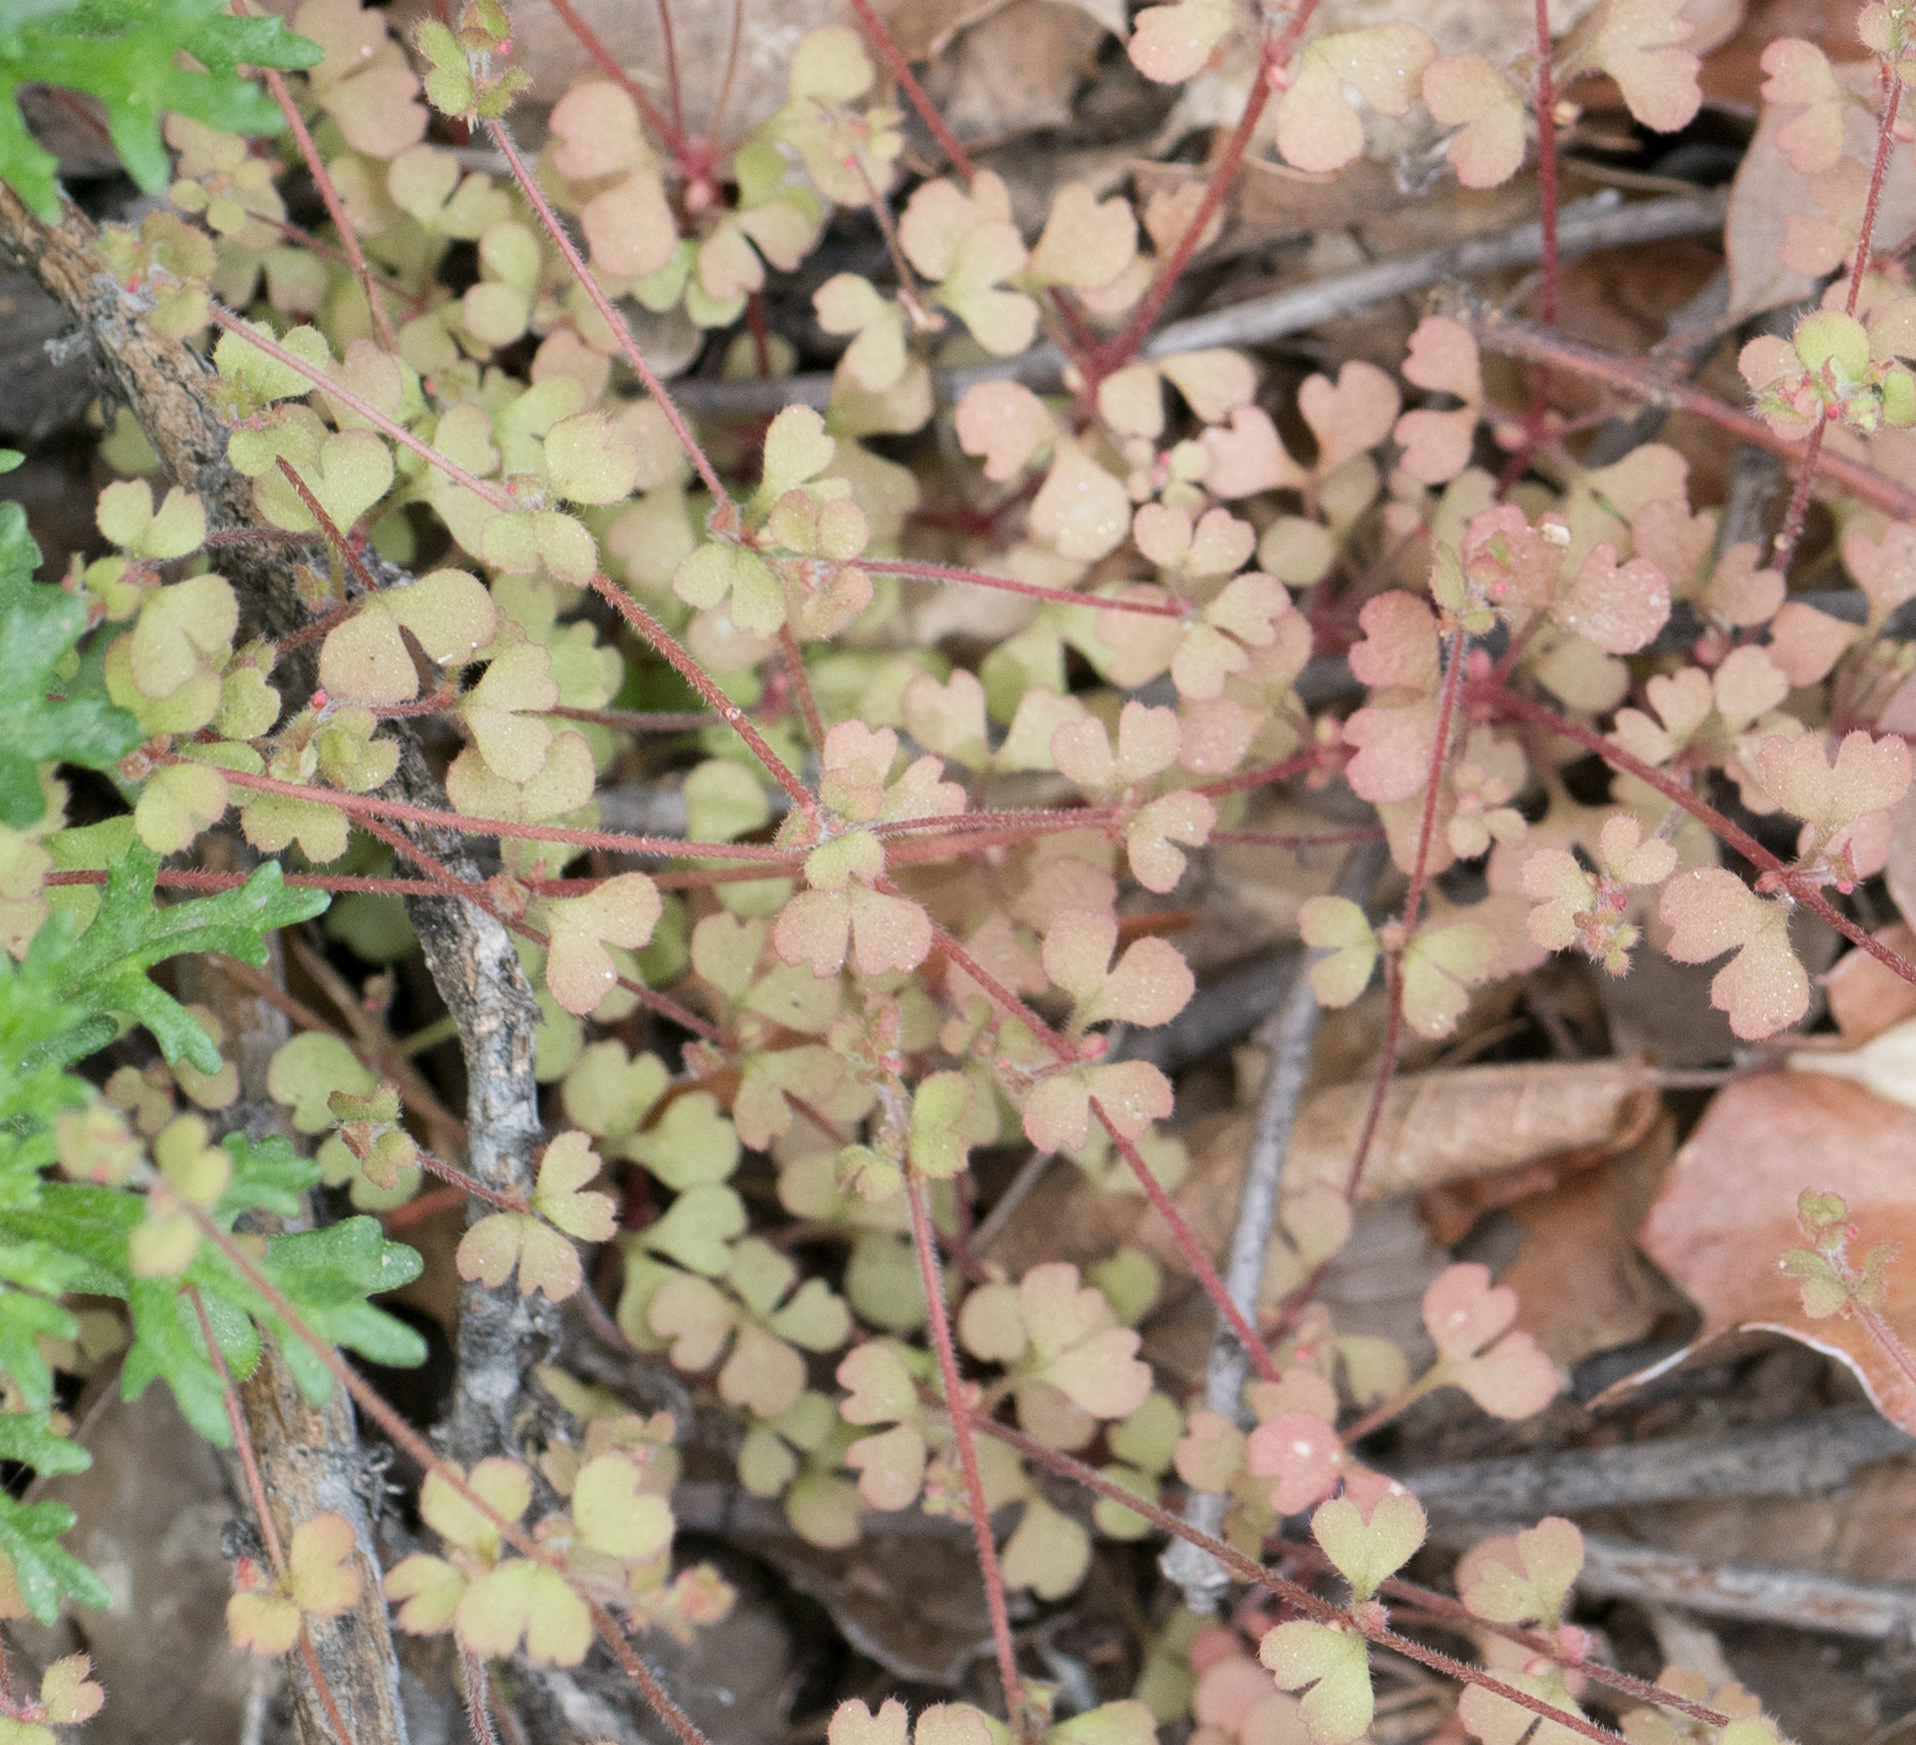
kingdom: Plantae
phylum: Tracheophyta
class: Magnoliopsida
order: Caryophyllales
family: Polygonaceae
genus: Pterostegia
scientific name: Pterostegia drymarioides
